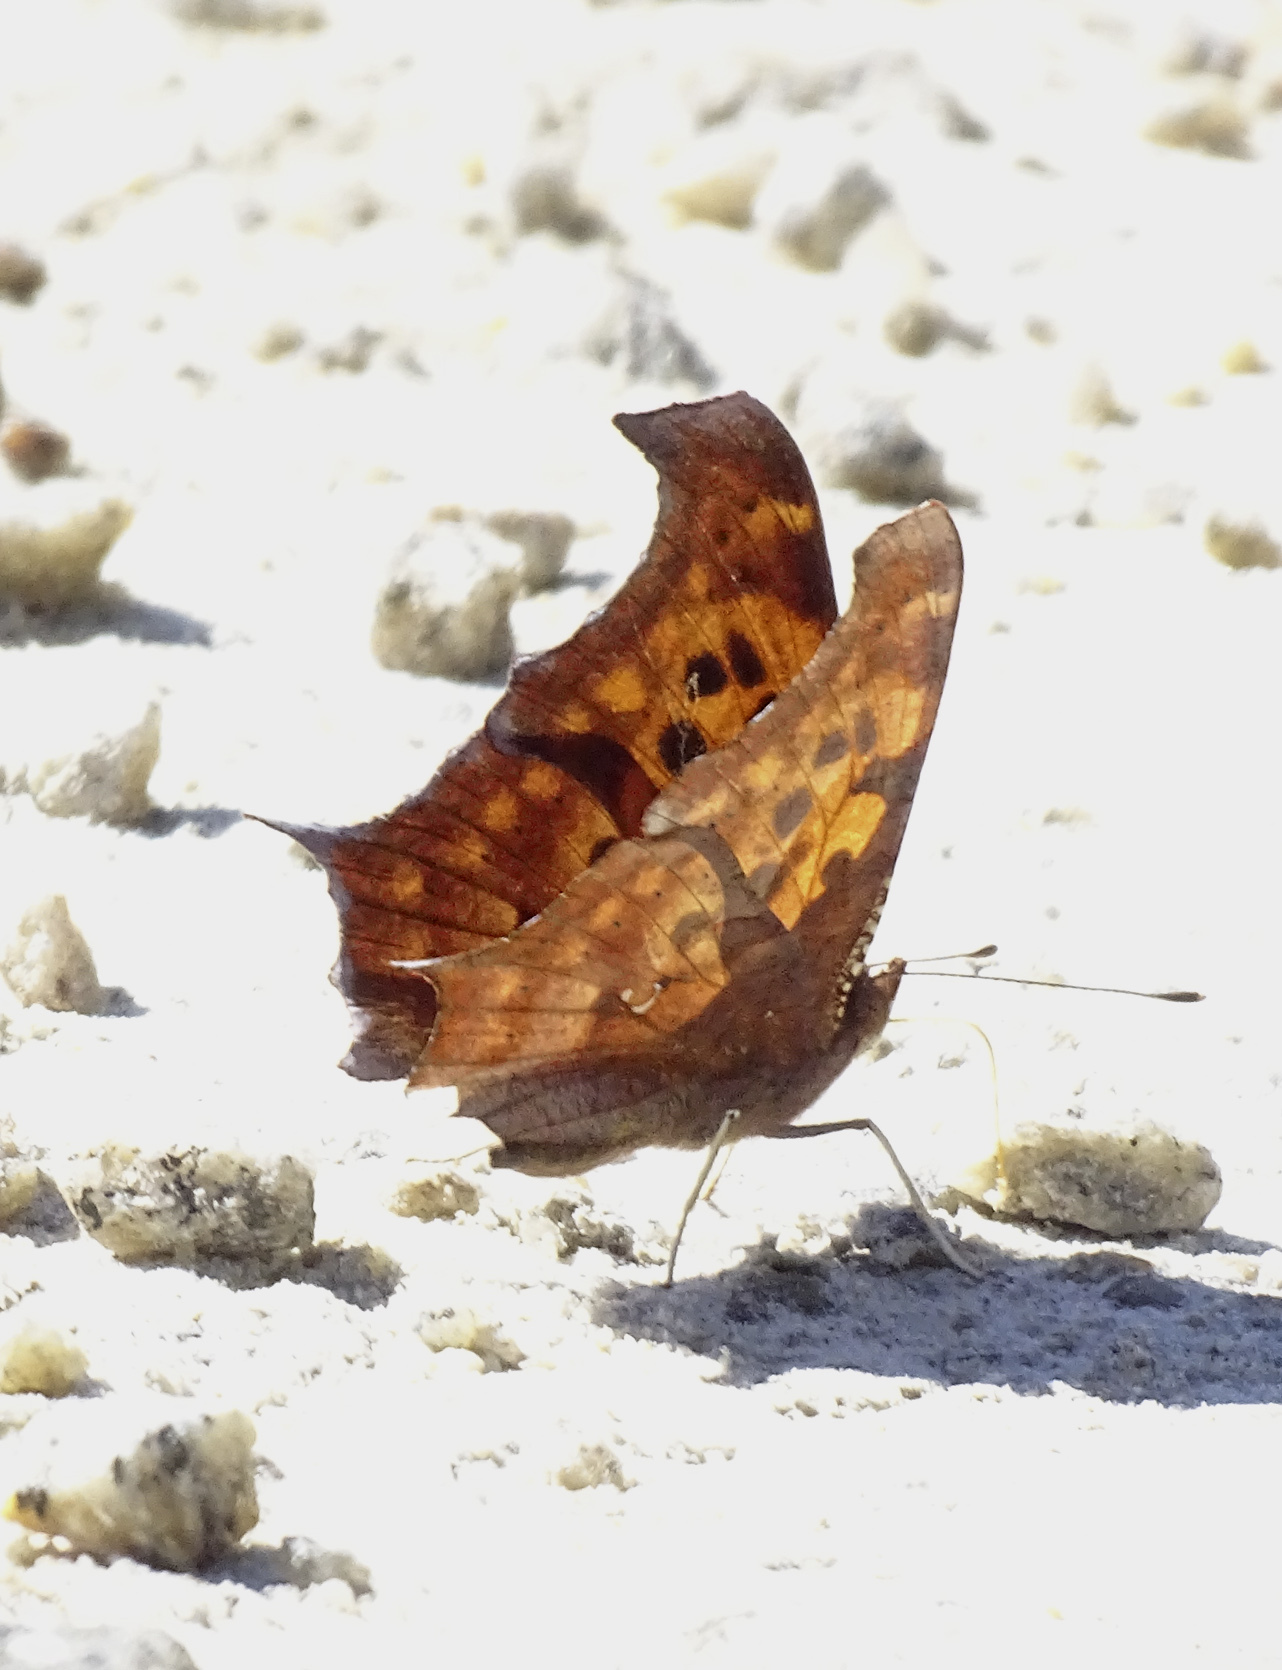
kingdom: Animalia
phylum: Arthropoda
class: Insecta
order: Lepidoptera
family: Nymphalidae
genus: Polygonia
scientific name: Polygonia interrogationis
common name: Question mark
